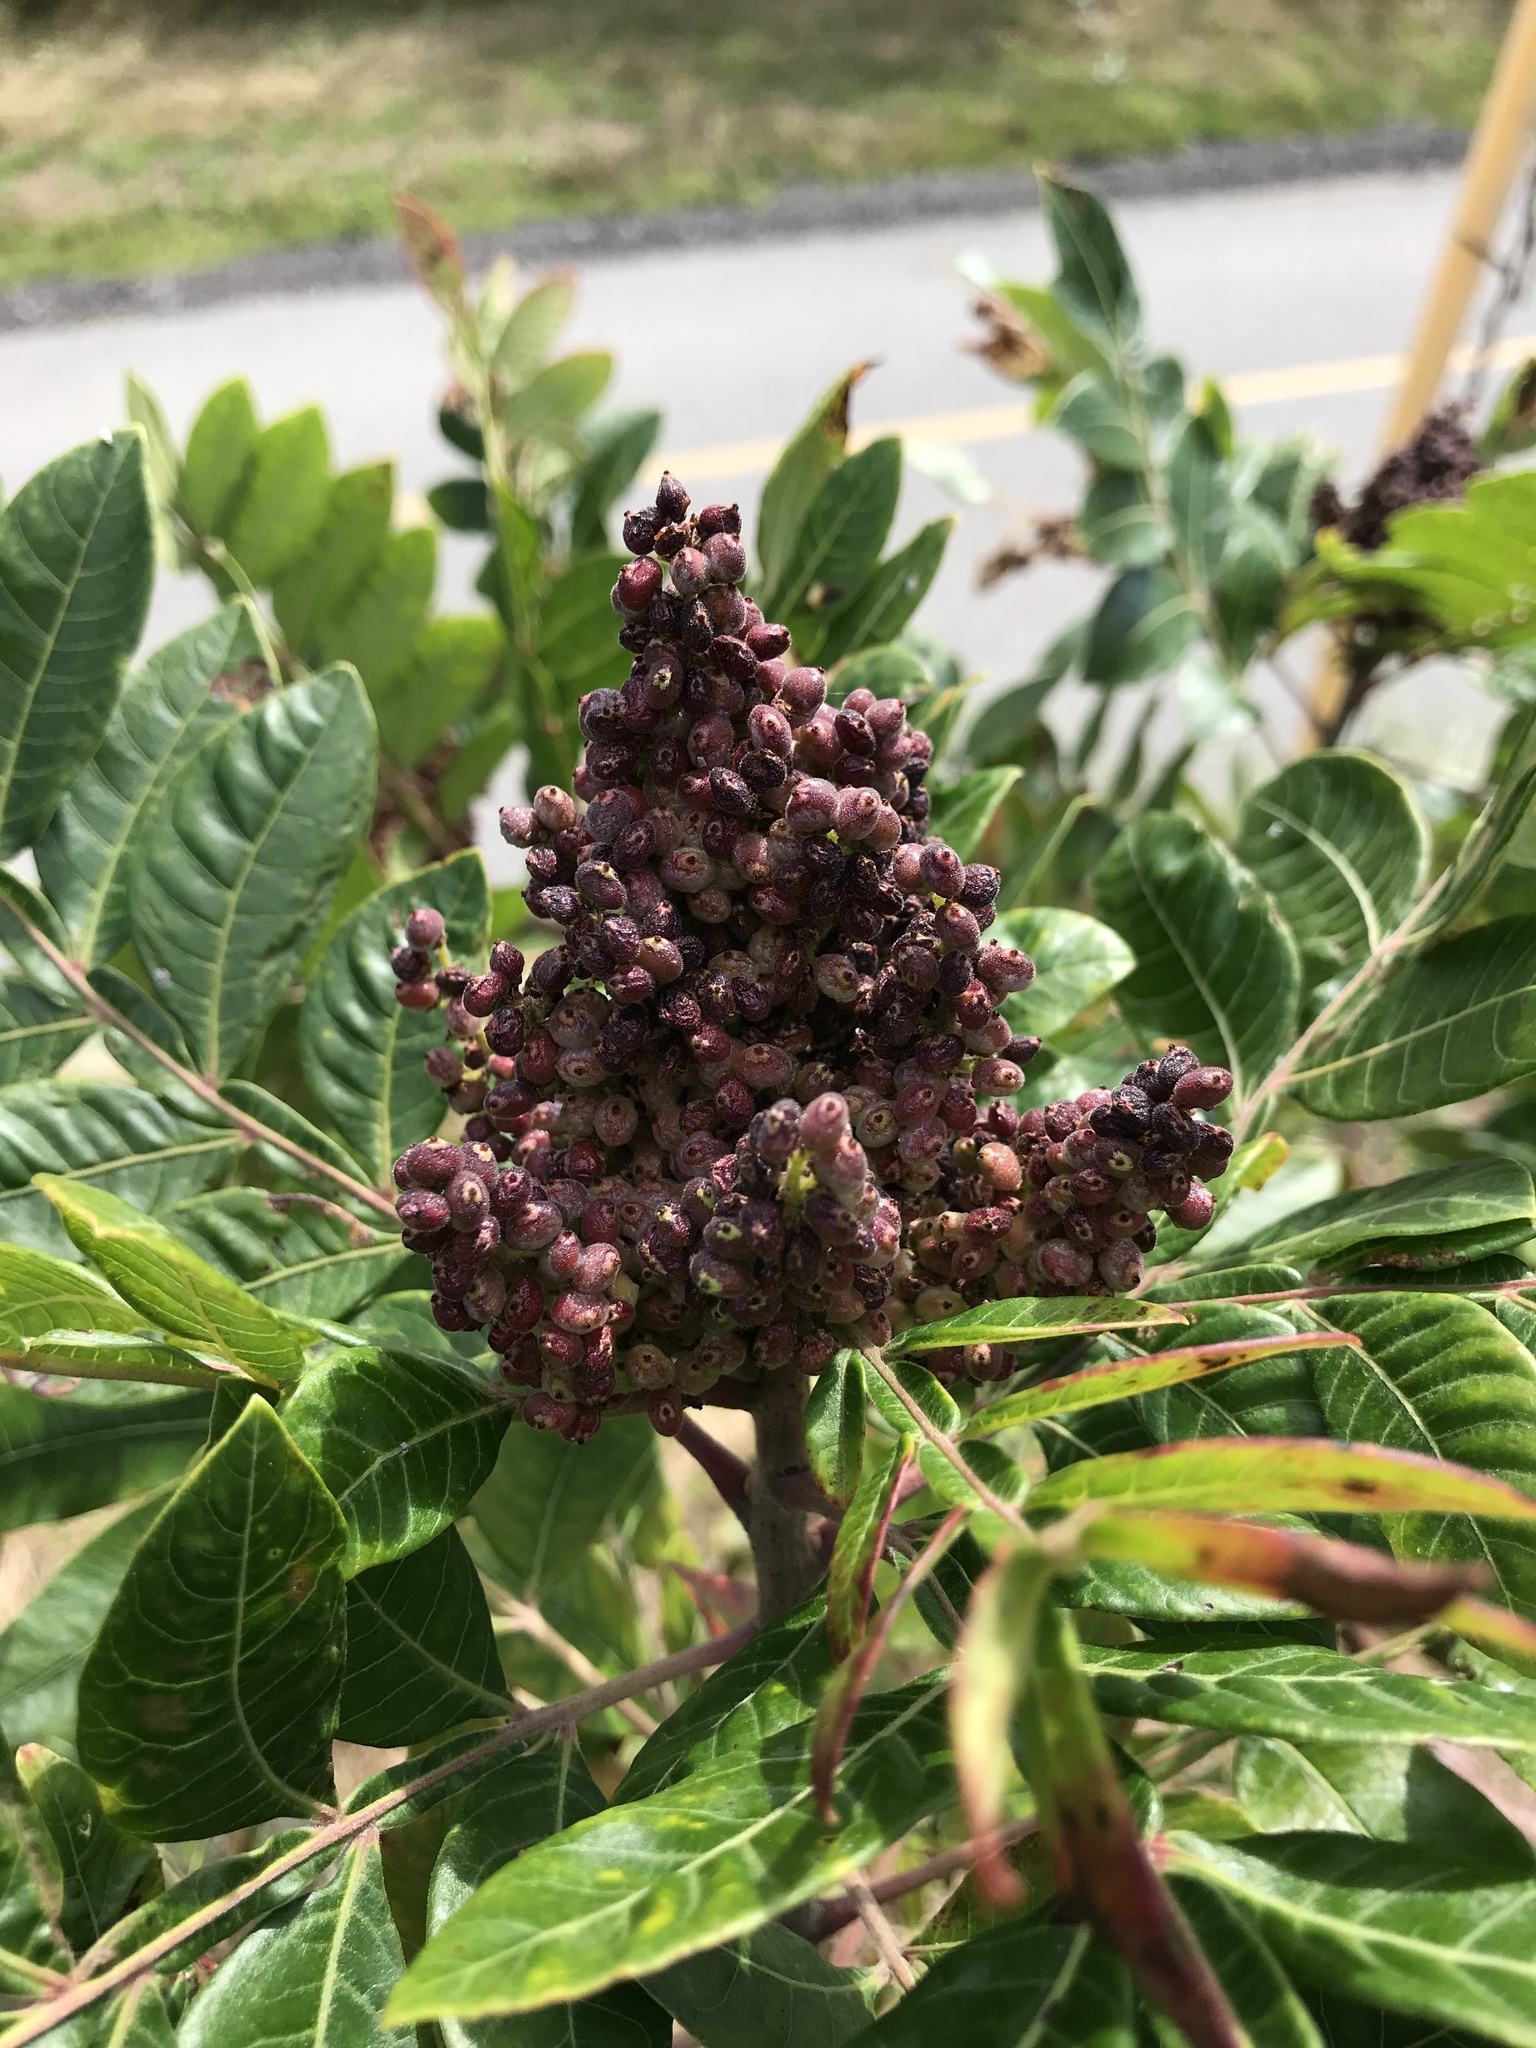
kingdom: Plantae
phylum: Tracheophyta
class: Magnoliopsida
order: Sapindales
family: Anacardiaceae
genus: Rhus
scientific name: Rhus copallina
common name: Shining sumac
